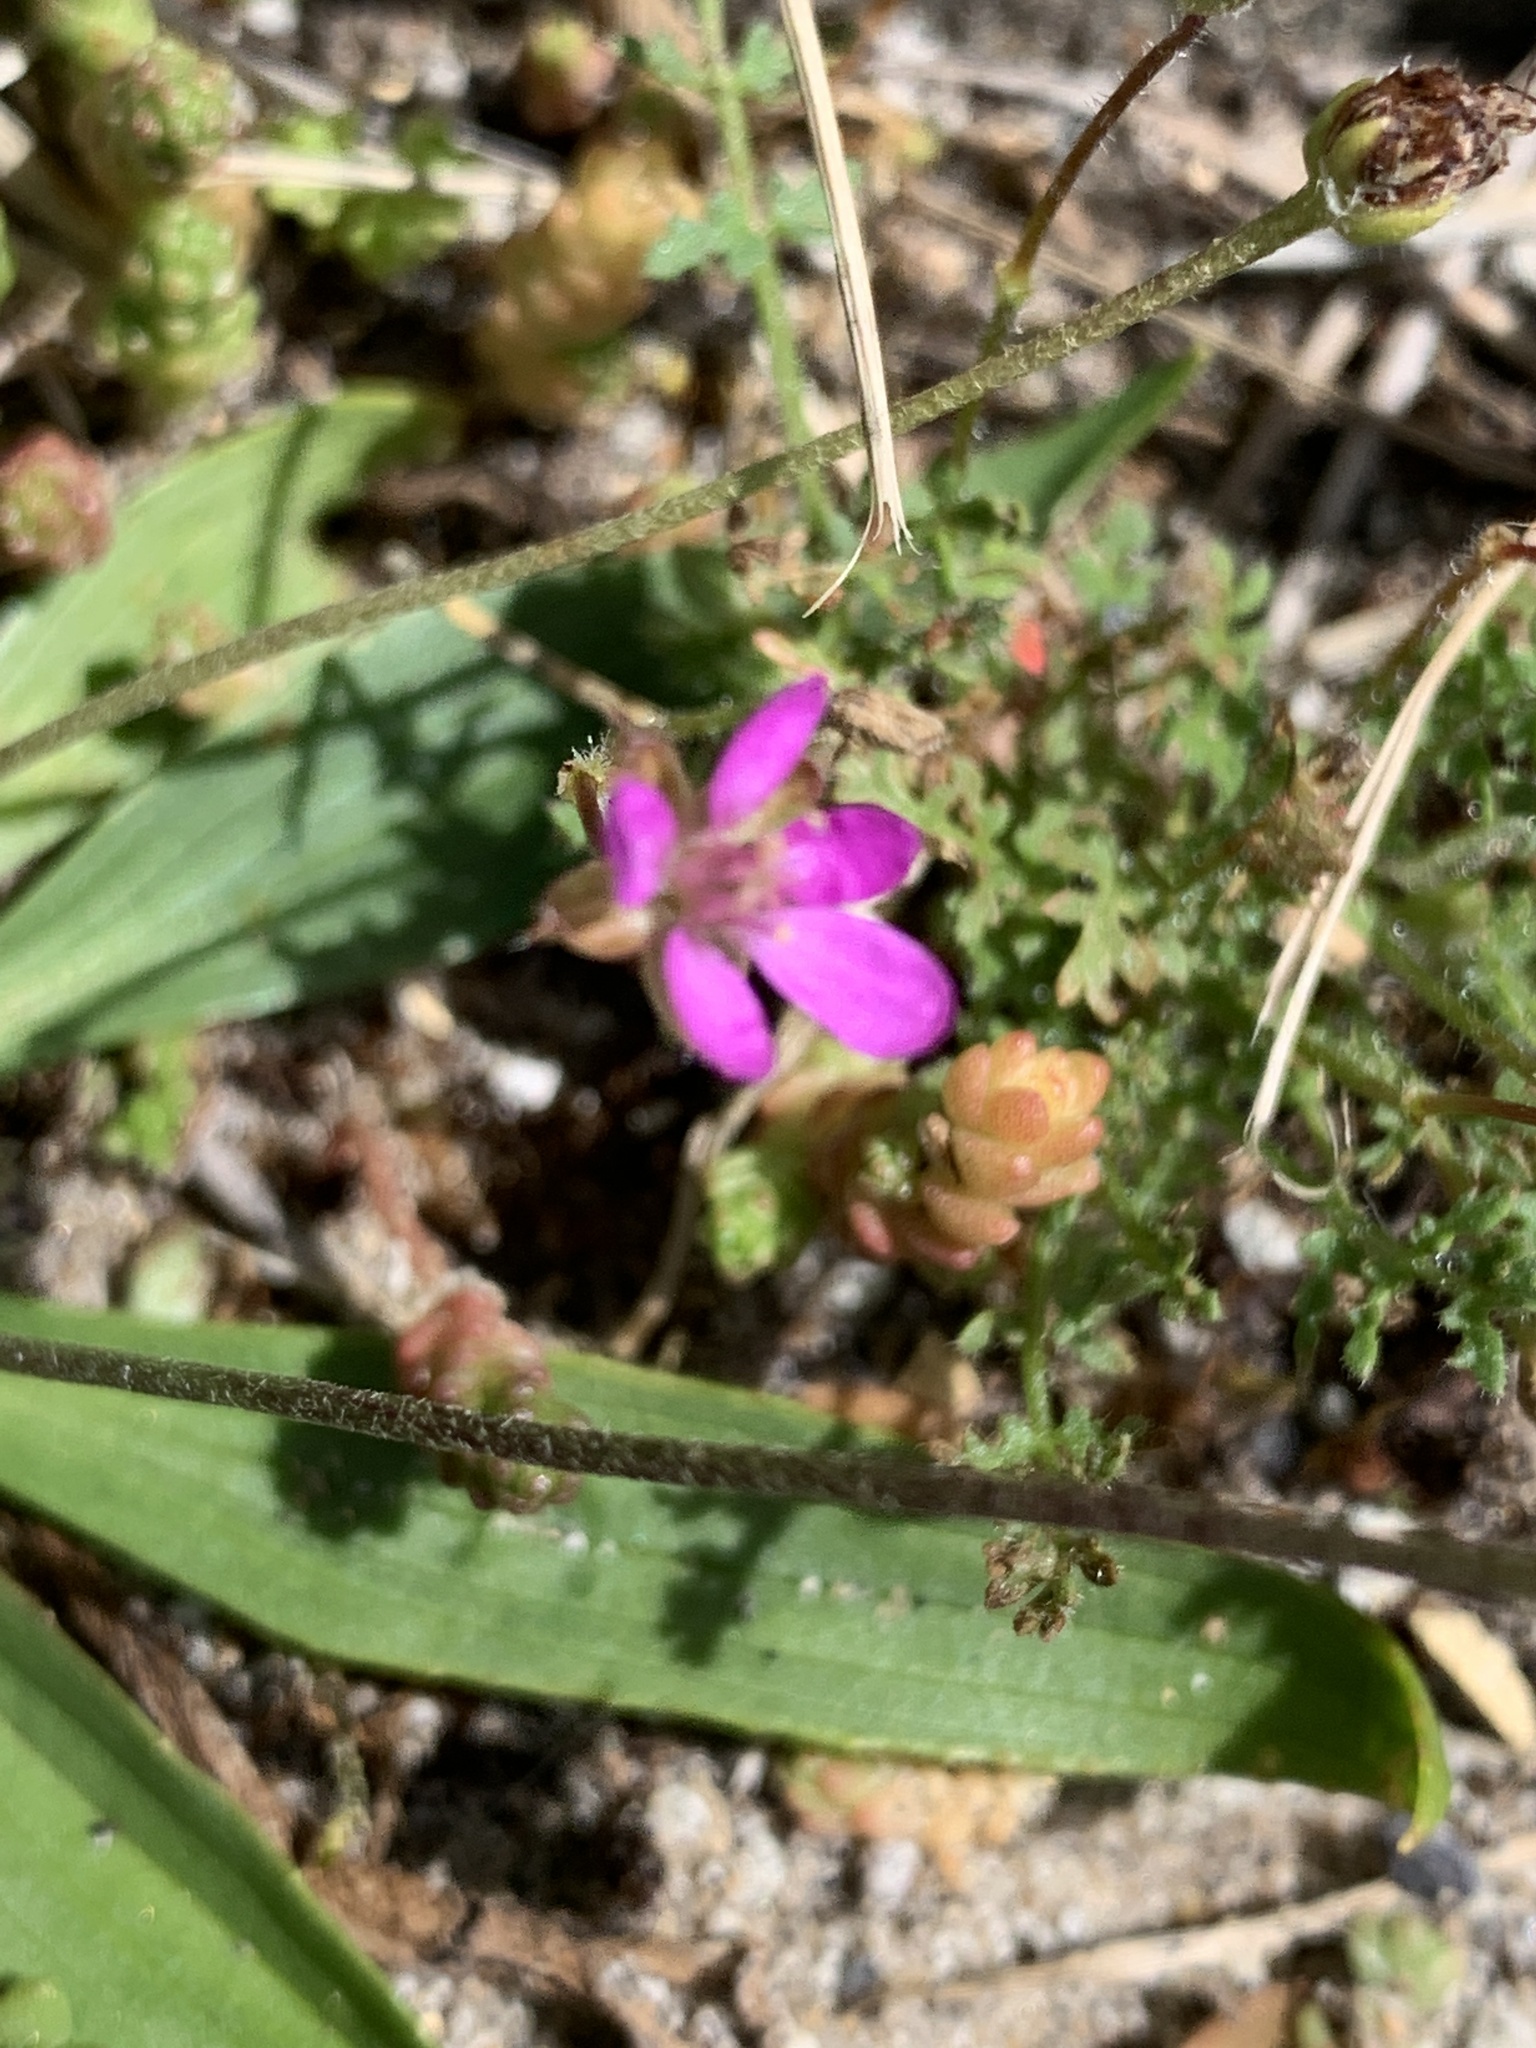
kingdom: Plantae
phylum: Tracheophyta
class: Magnoliopsida
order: Geraniales
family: Geraniaceae
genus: Erodium
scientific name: Erodium cicutarium
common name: Common stork's-bill
